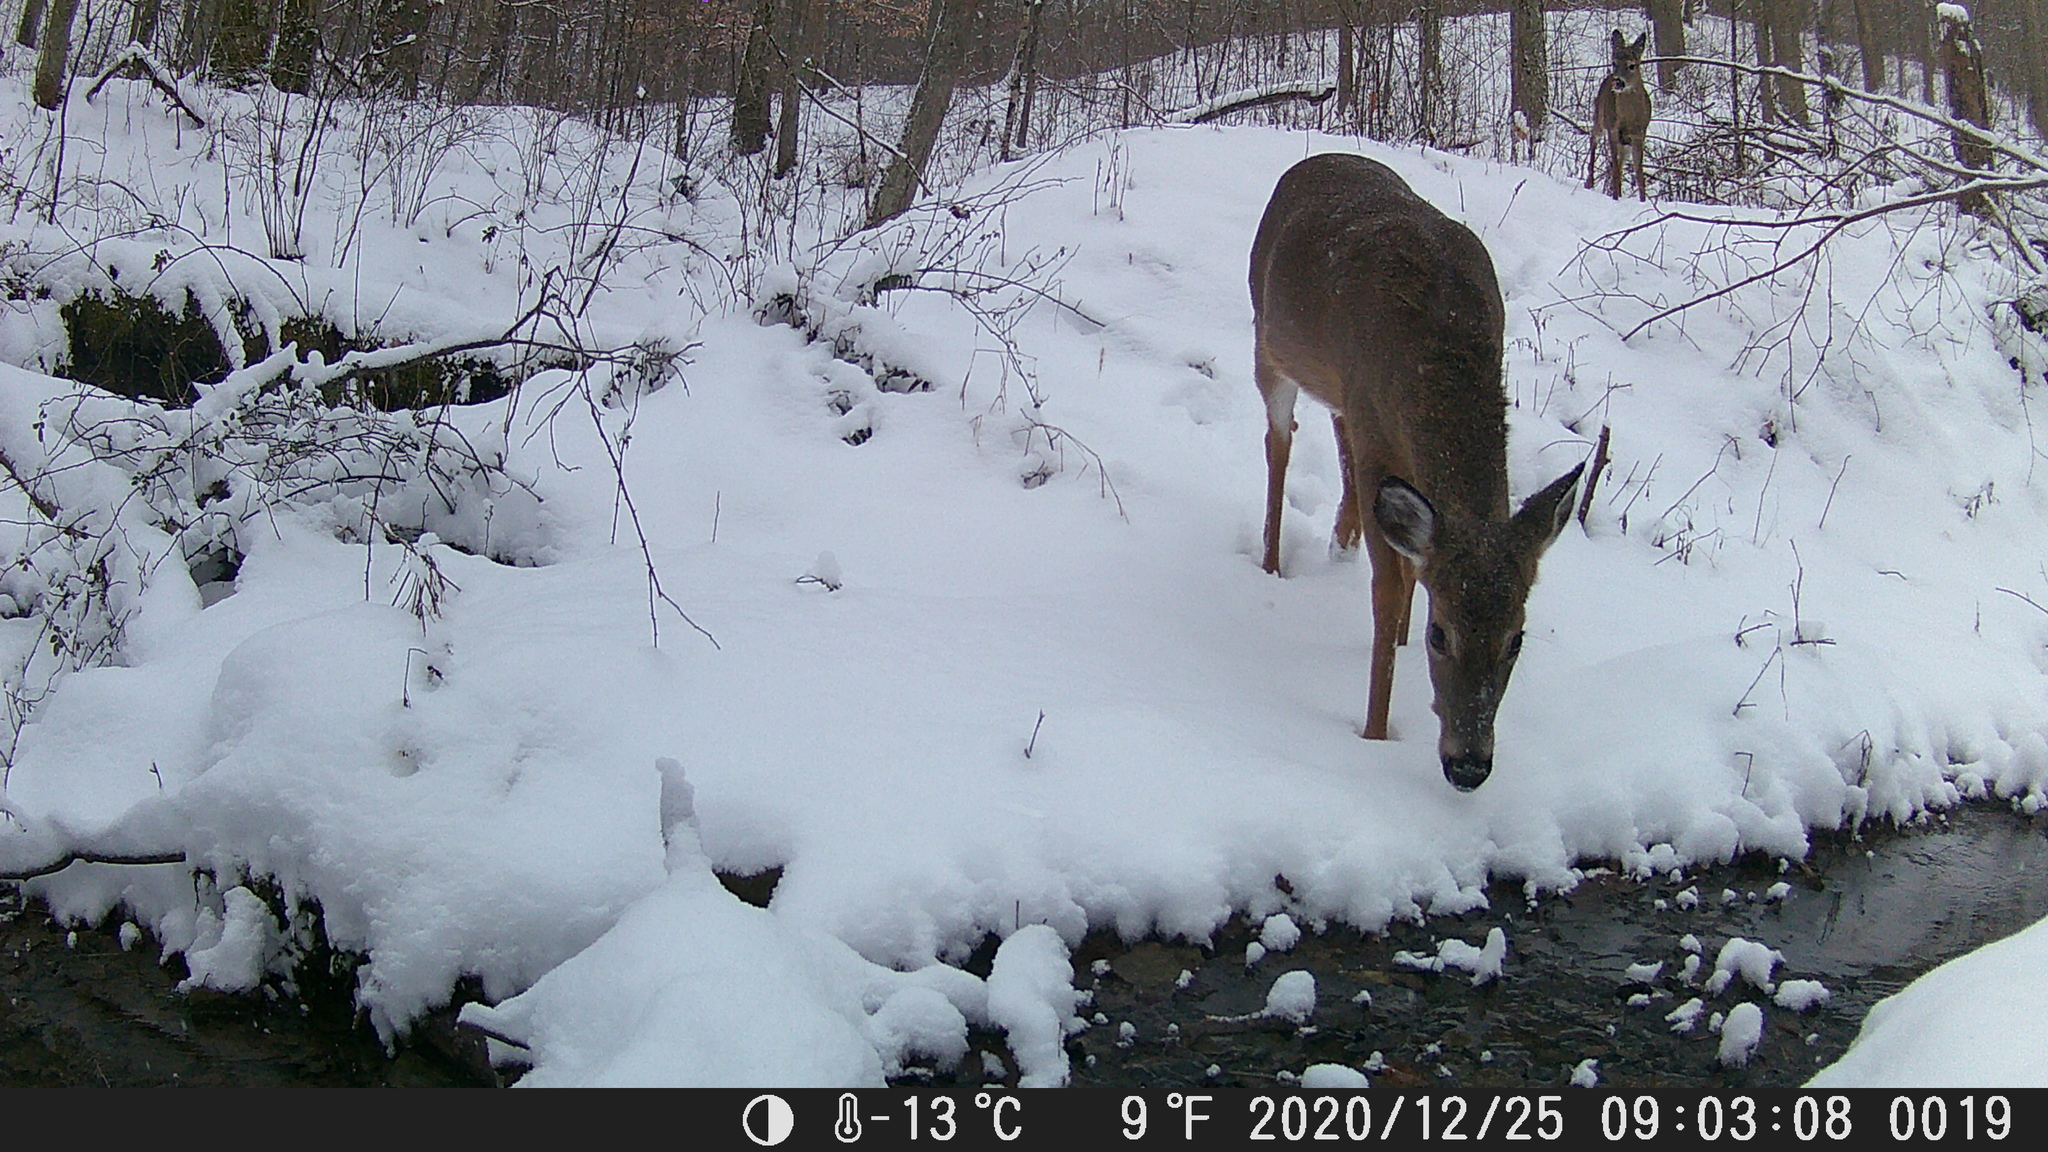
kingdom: Animalia
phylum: Chordata
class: Mammalia
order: Artiodactyla
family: Cervidae
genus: Odocoileus
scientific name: Odocoileus virginianus
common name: White-tailed deer
